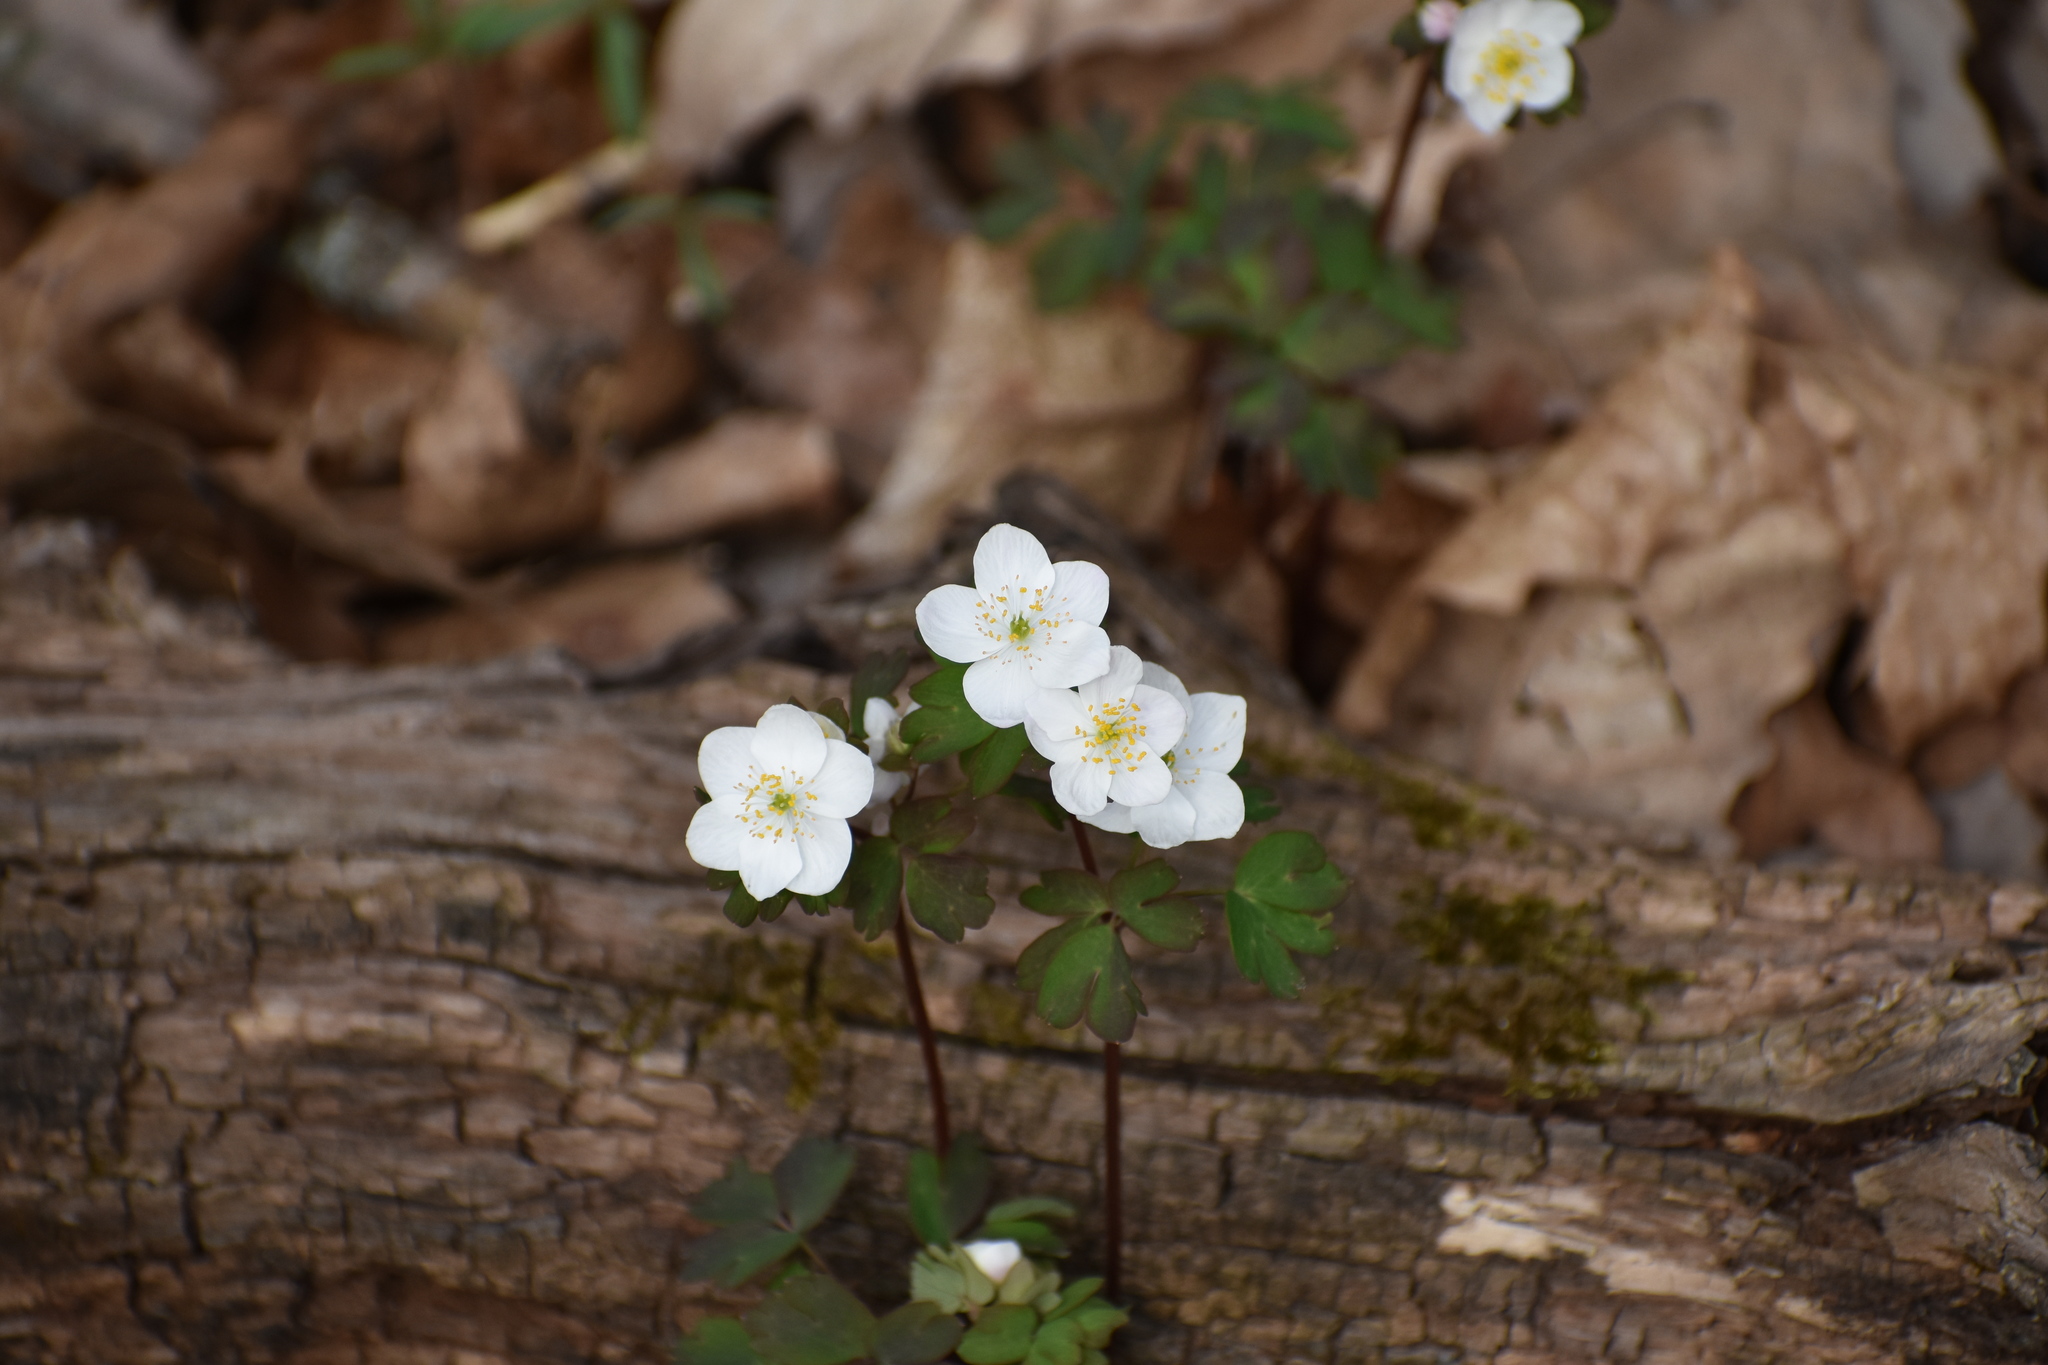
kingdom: Plantae
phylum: Tracheophyta
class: Magnoliopsida
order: Ranunculales
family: Ranunculaceae
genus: Enemion
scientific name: Enemion biternatum
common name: Eastern false rue-anemone
